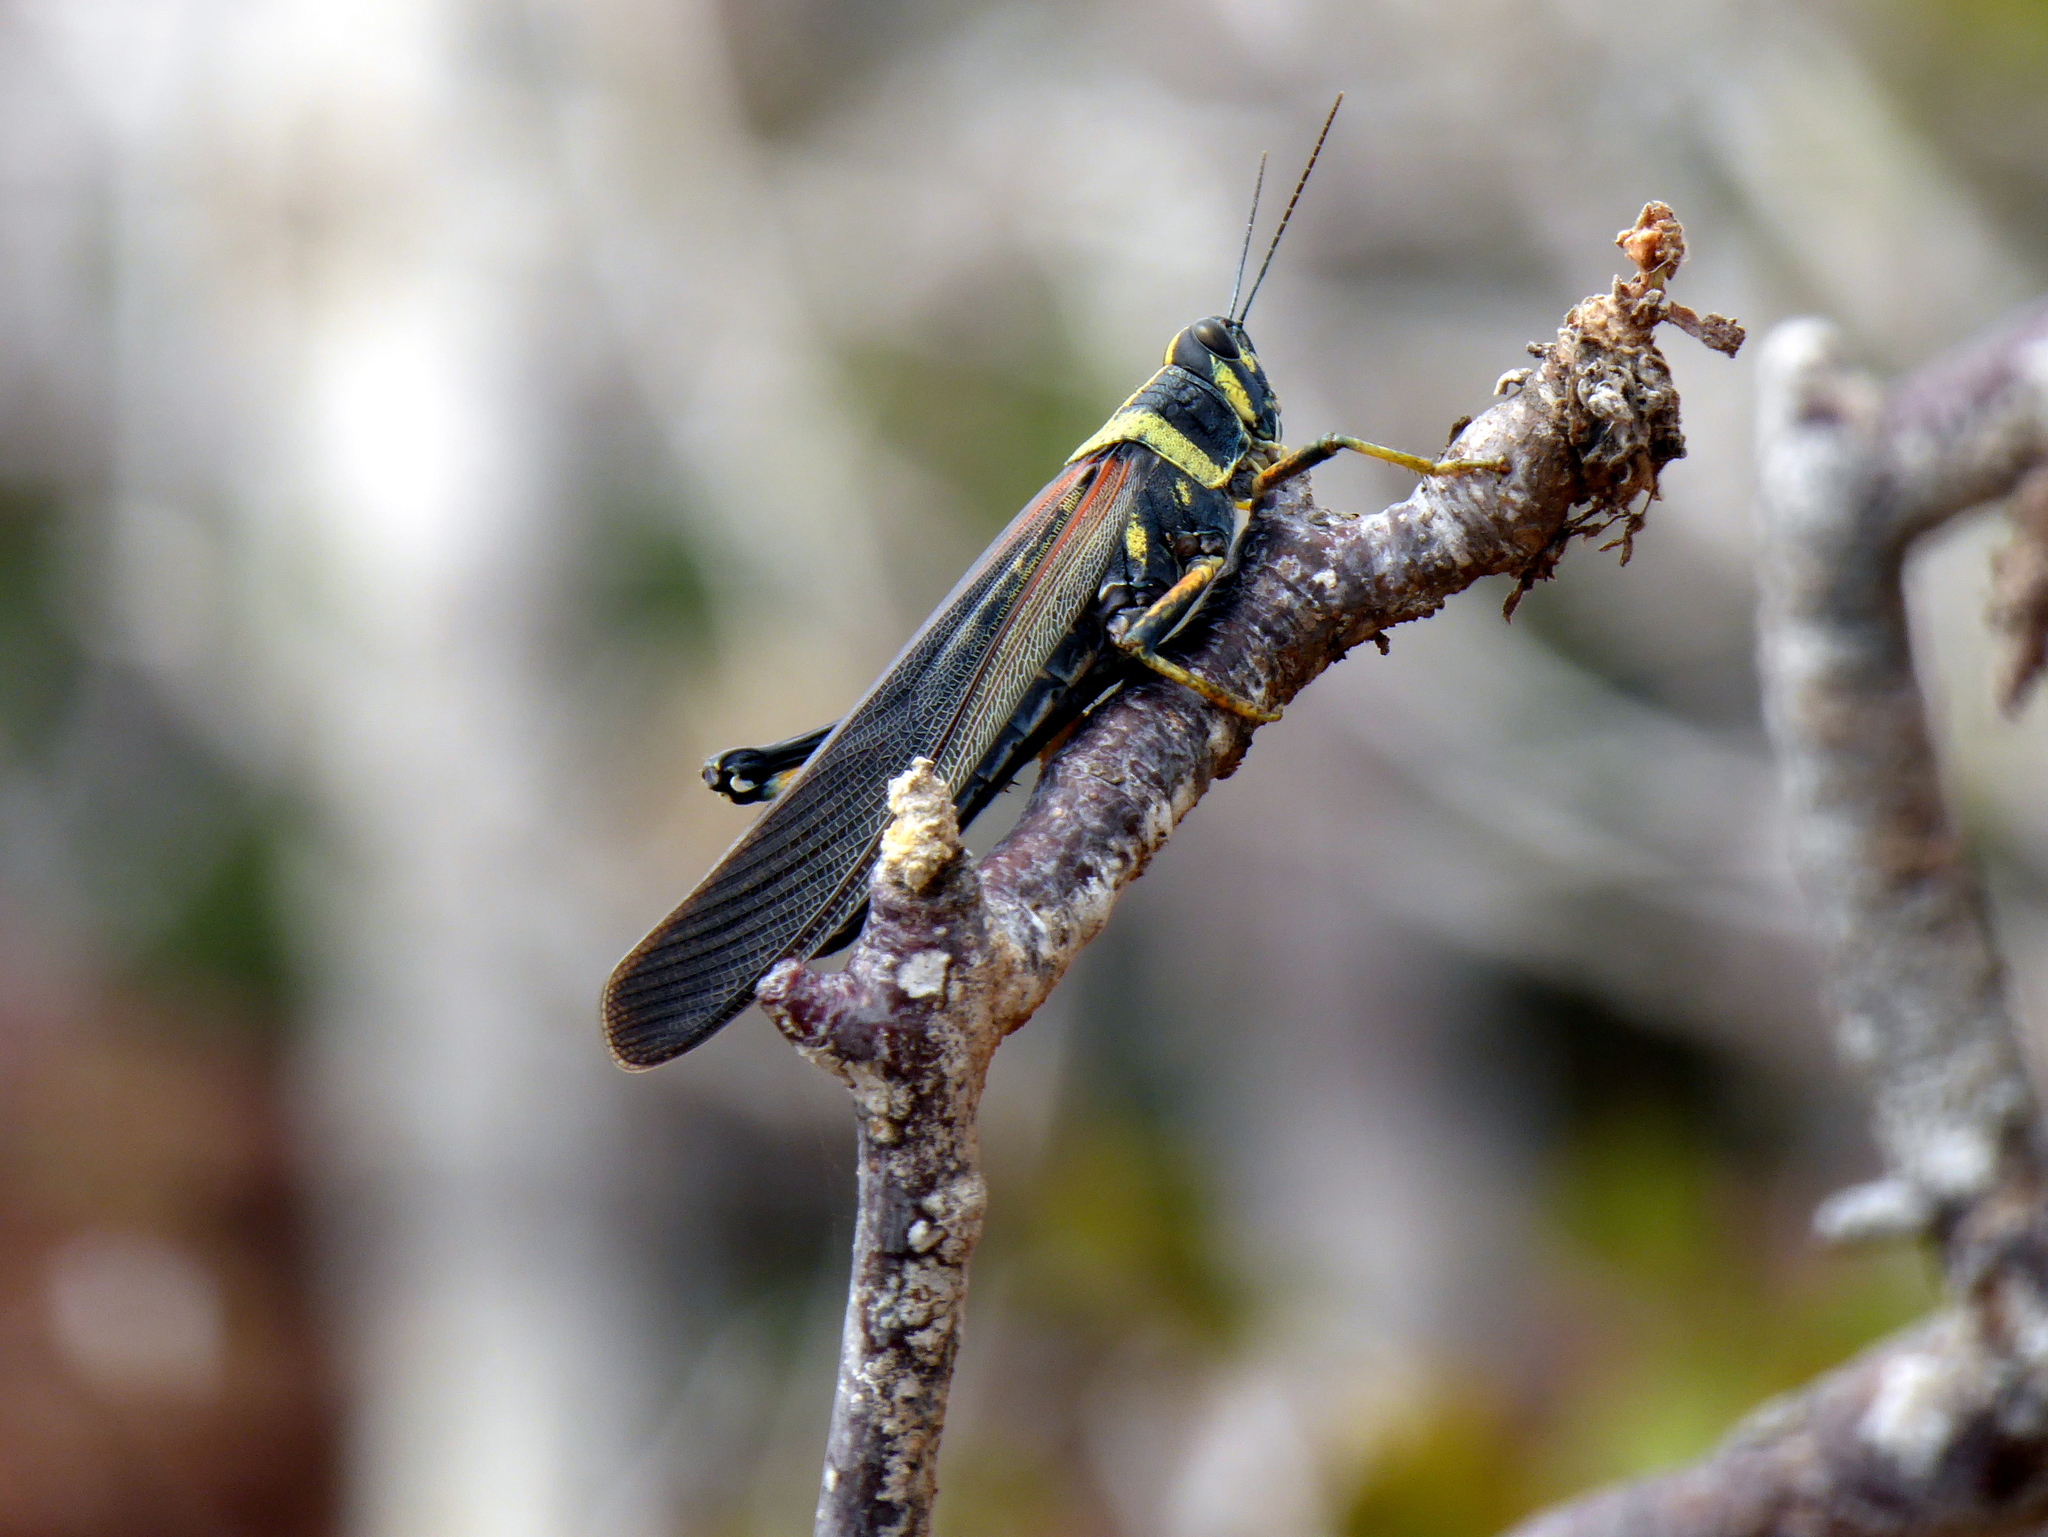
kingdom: Animalia
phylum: Arthropoda
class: Insecta
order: Orthoptera
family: Acrididae
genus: Schistocerca
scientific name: Schistocerca melanocera
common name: Large painted locust
